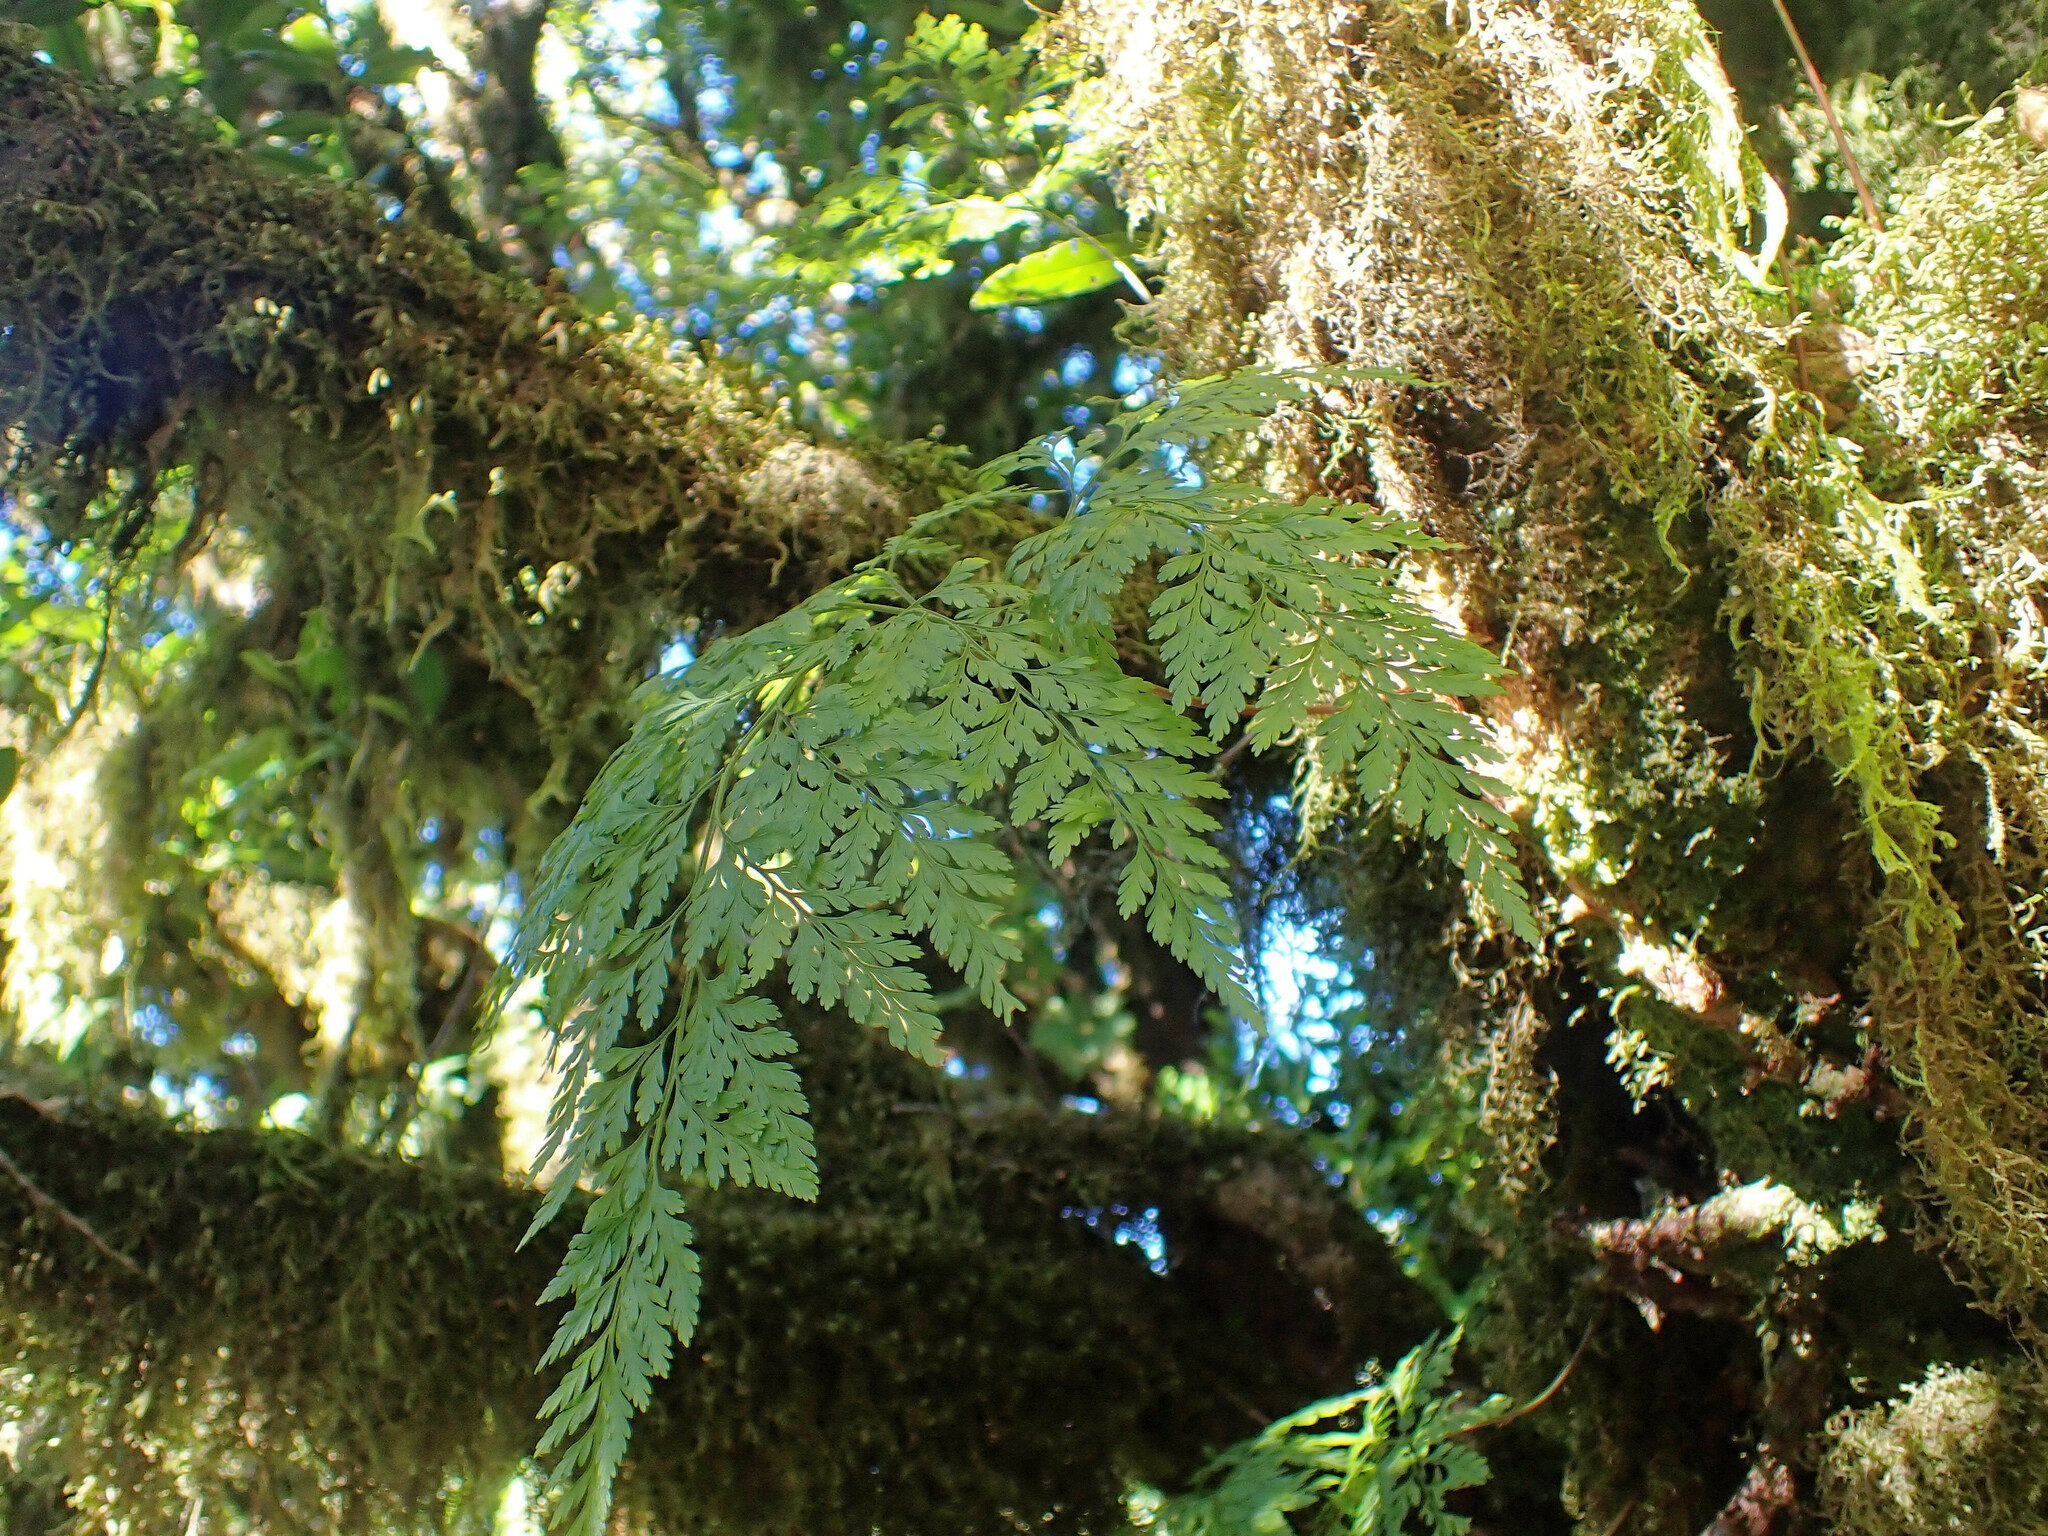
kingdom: Plantae
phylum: Tracheophyta
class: Polypodiopsida
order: Polypodiales
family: Davalliaceae
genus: Davallia
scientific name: Davallia canariensis
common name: Hare's-foot fern
